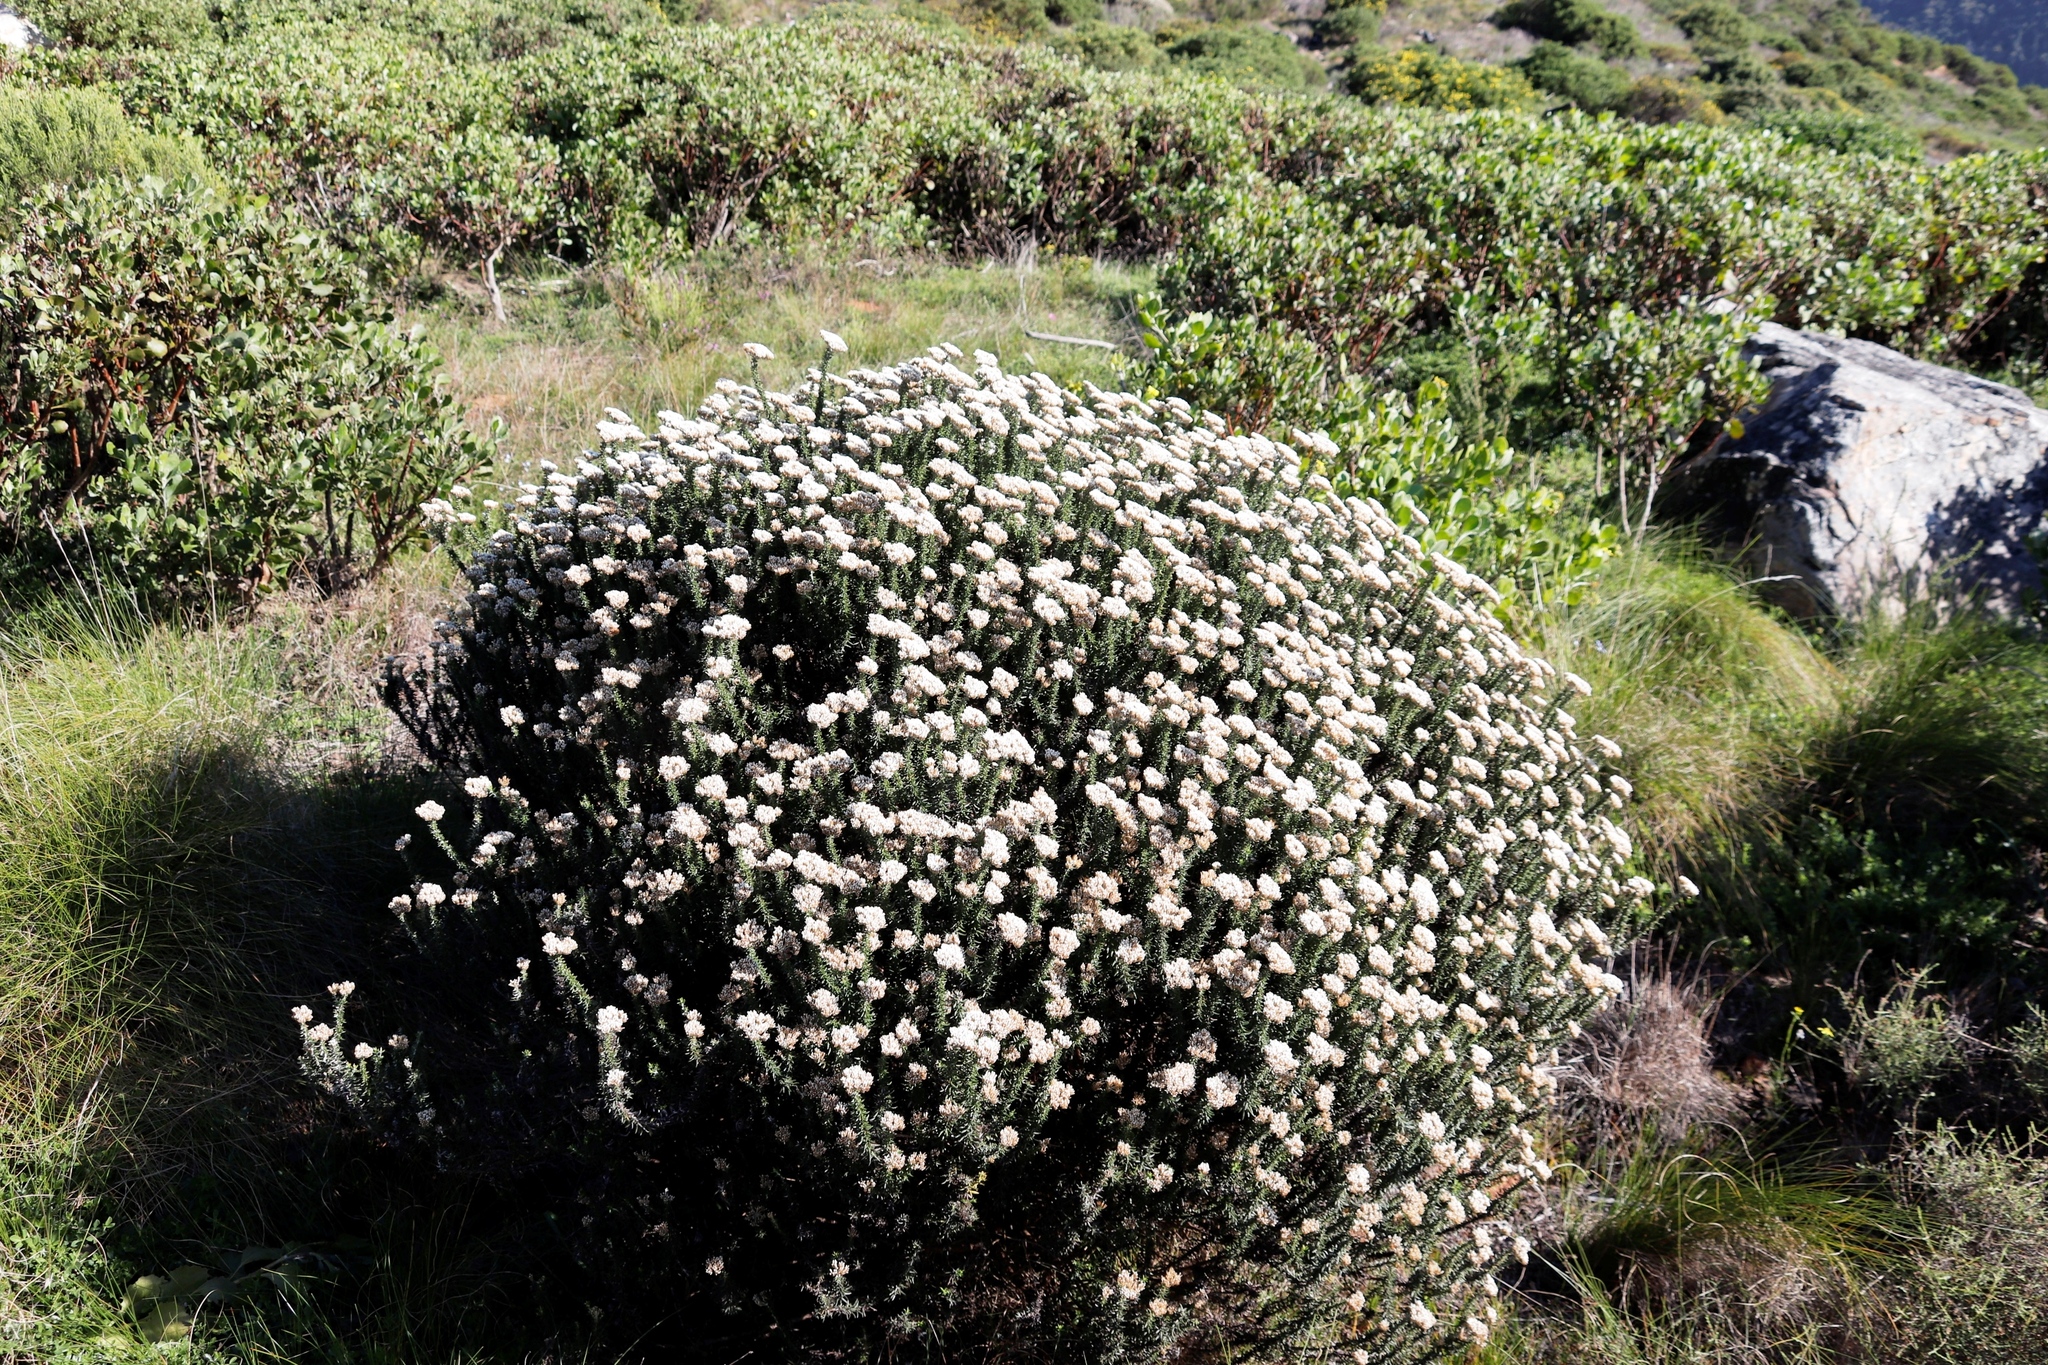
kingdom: Plantae
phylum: Tracheophyta
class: Magnoliopsida
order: Asterales
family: Asteraceae
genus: Metalasia
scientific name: Metalasia densa
